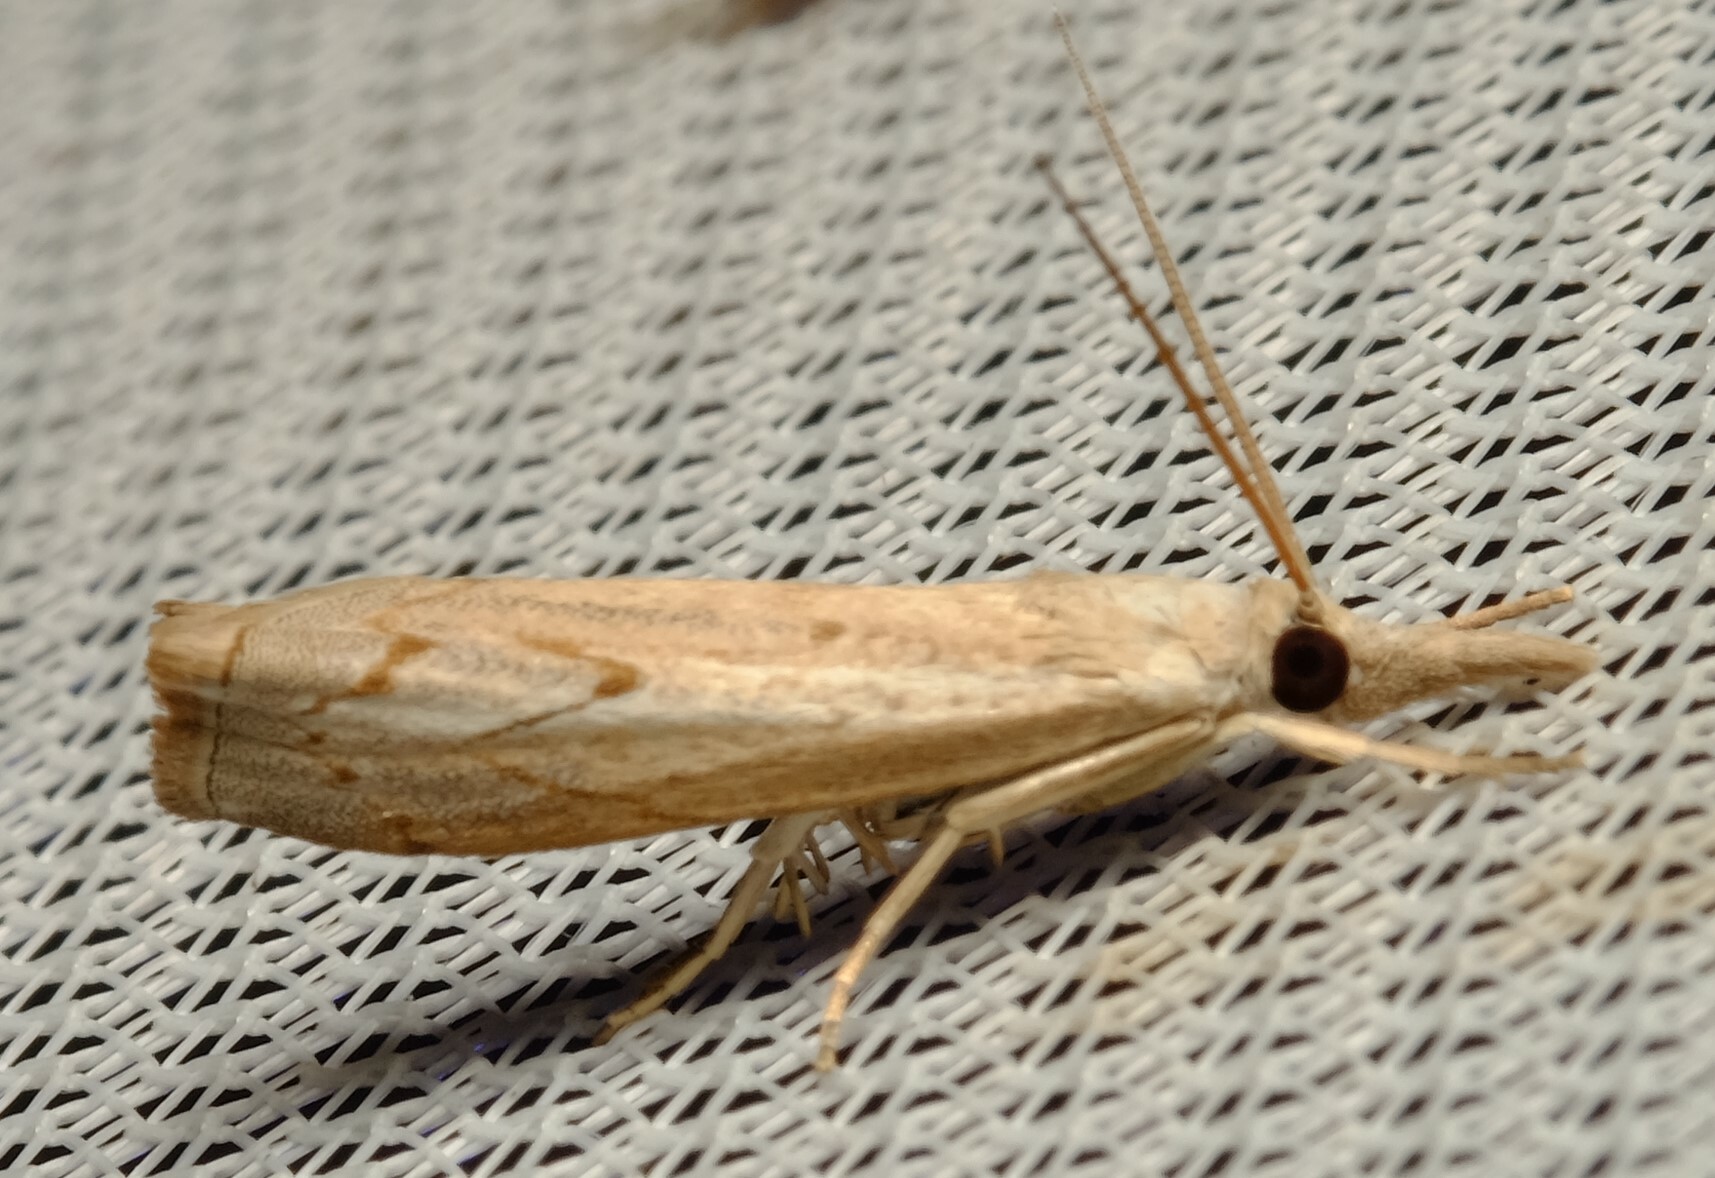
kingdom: Animalia
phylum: Arthropoda
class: Insecta
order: Lepidoptera
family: Crambidae
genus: Culladia
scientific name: Culladia cuneiferellus
